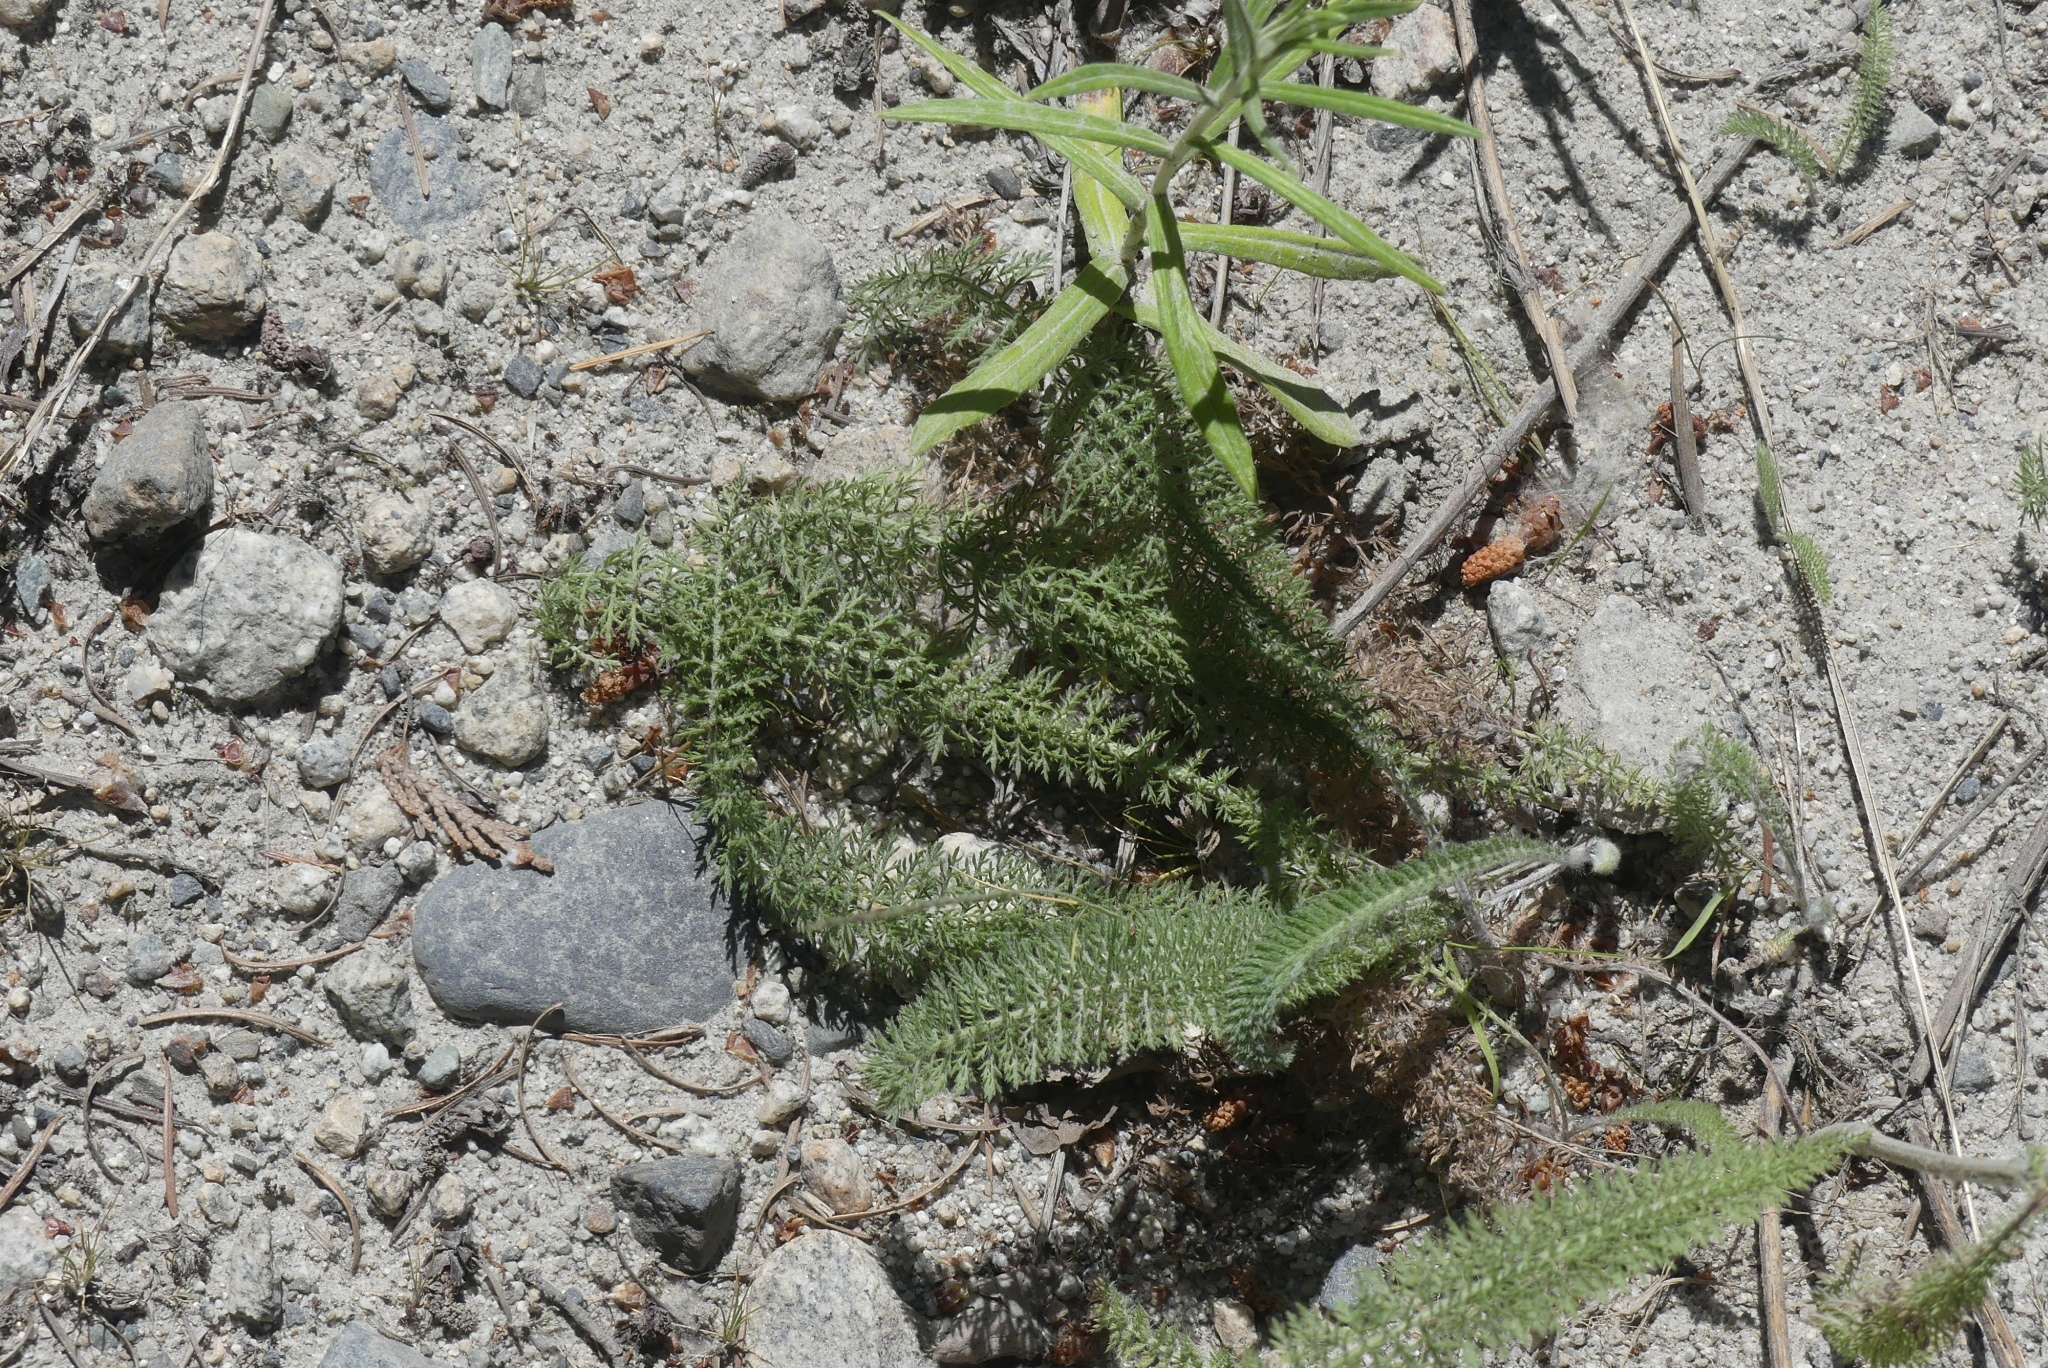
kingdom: Plantae
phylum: Tracheophyta
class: Magnoliopsida
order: Asterales
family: Asteraceae
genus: Achillea
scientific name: Achillea millefolium
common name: Yarrow
